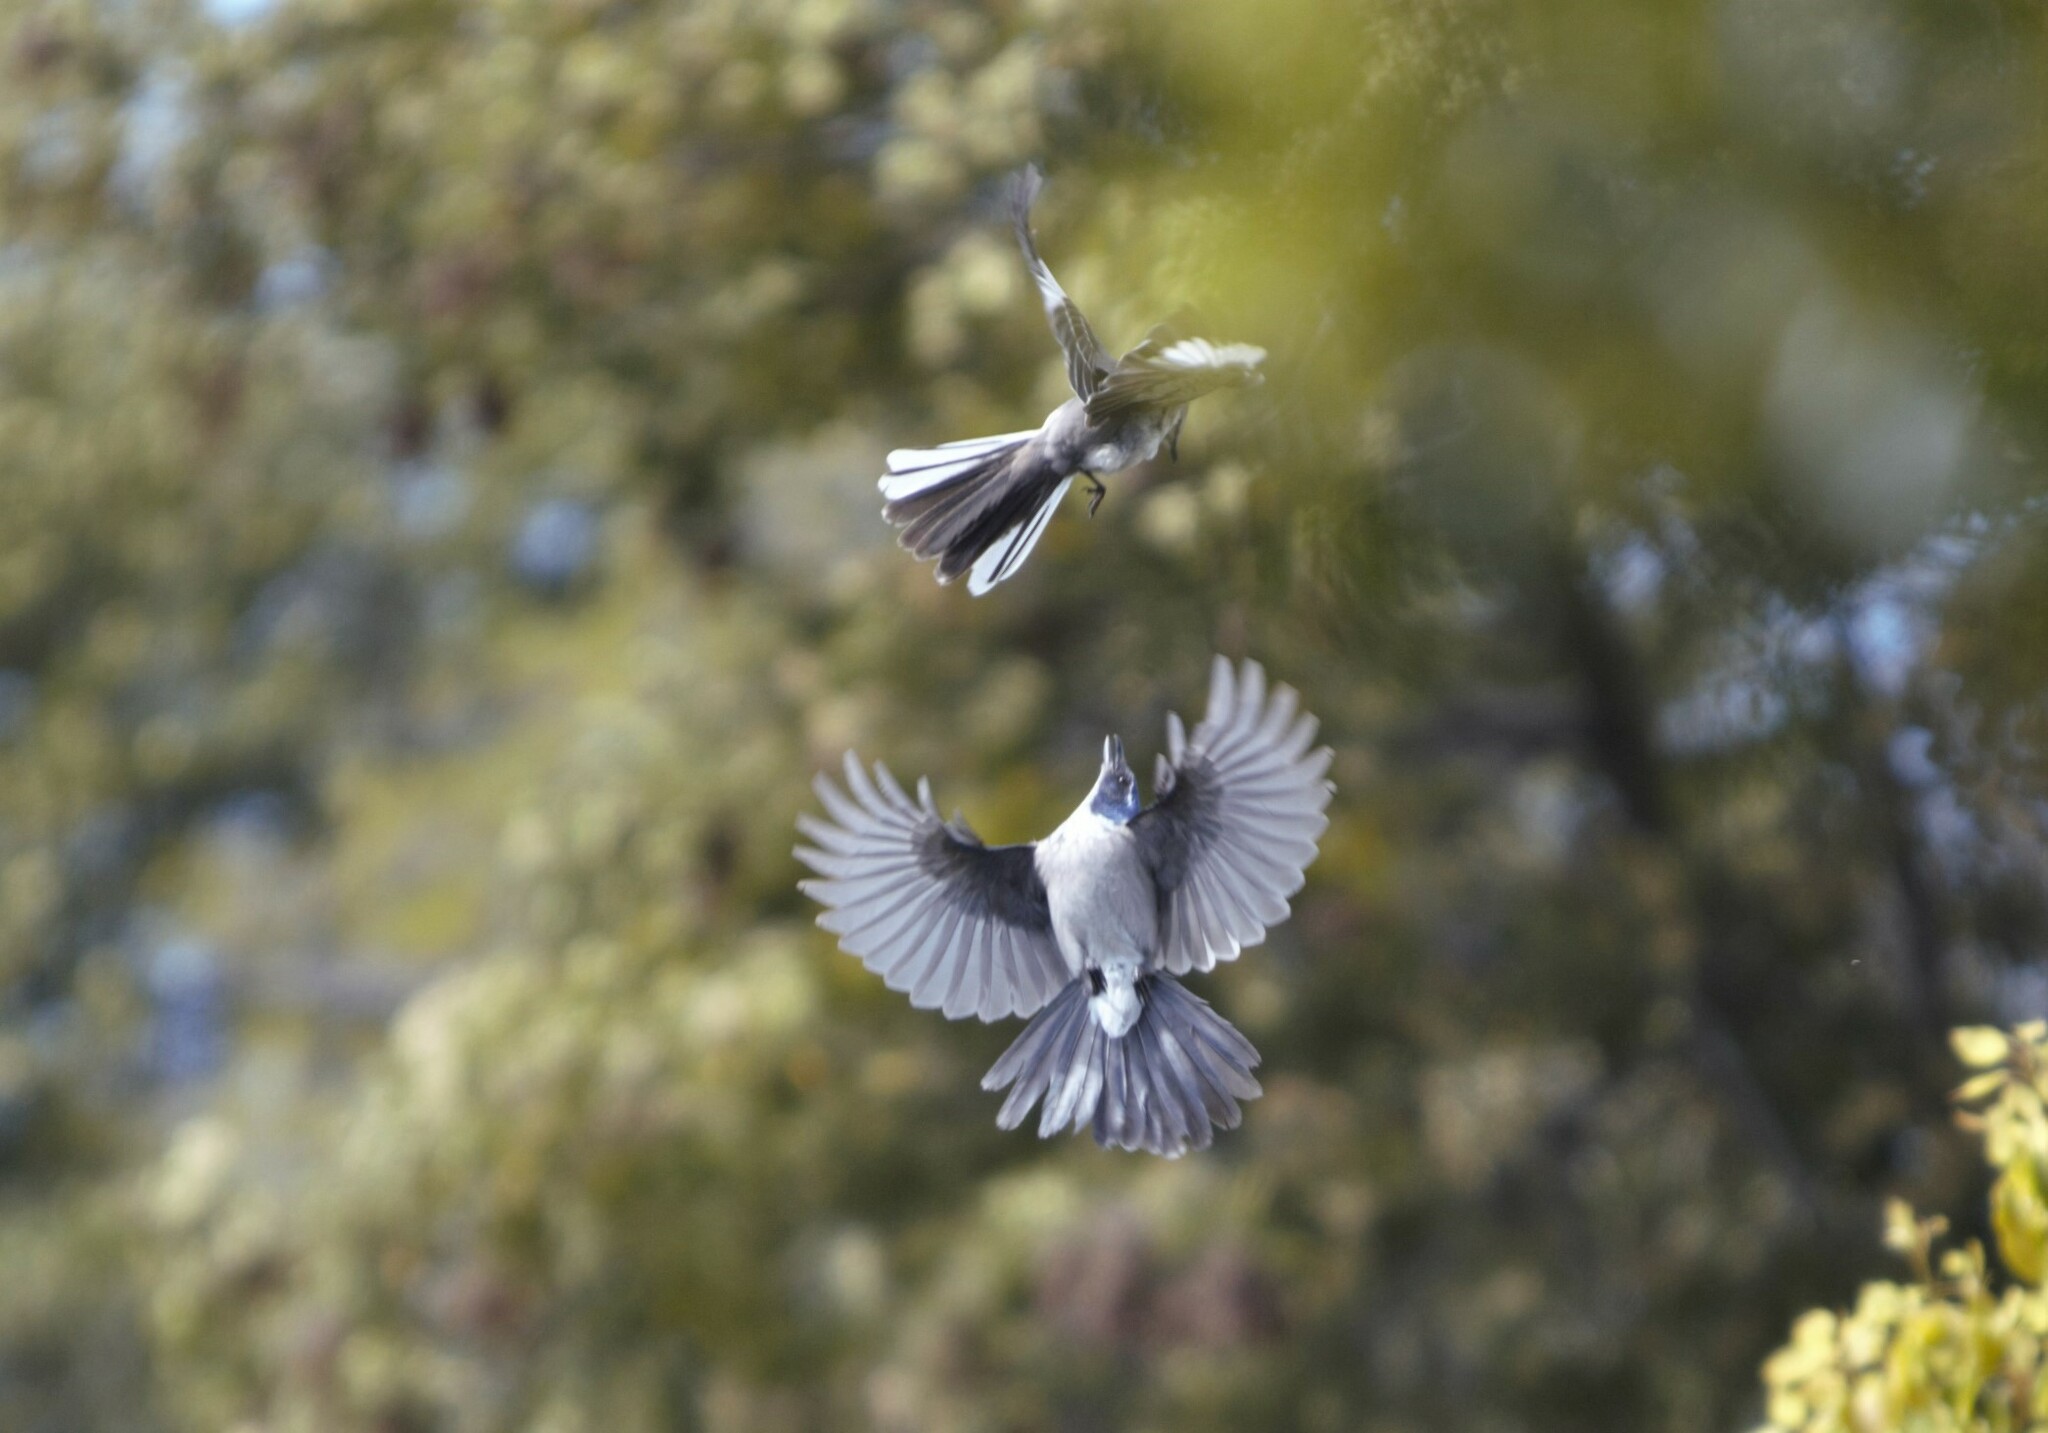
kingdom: Animalia
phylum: Chordata
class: Aves
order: Passeriformes
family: Corvidae
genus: Aphelocoma
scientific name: Aphelocoma californica
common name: California scrub-jay
